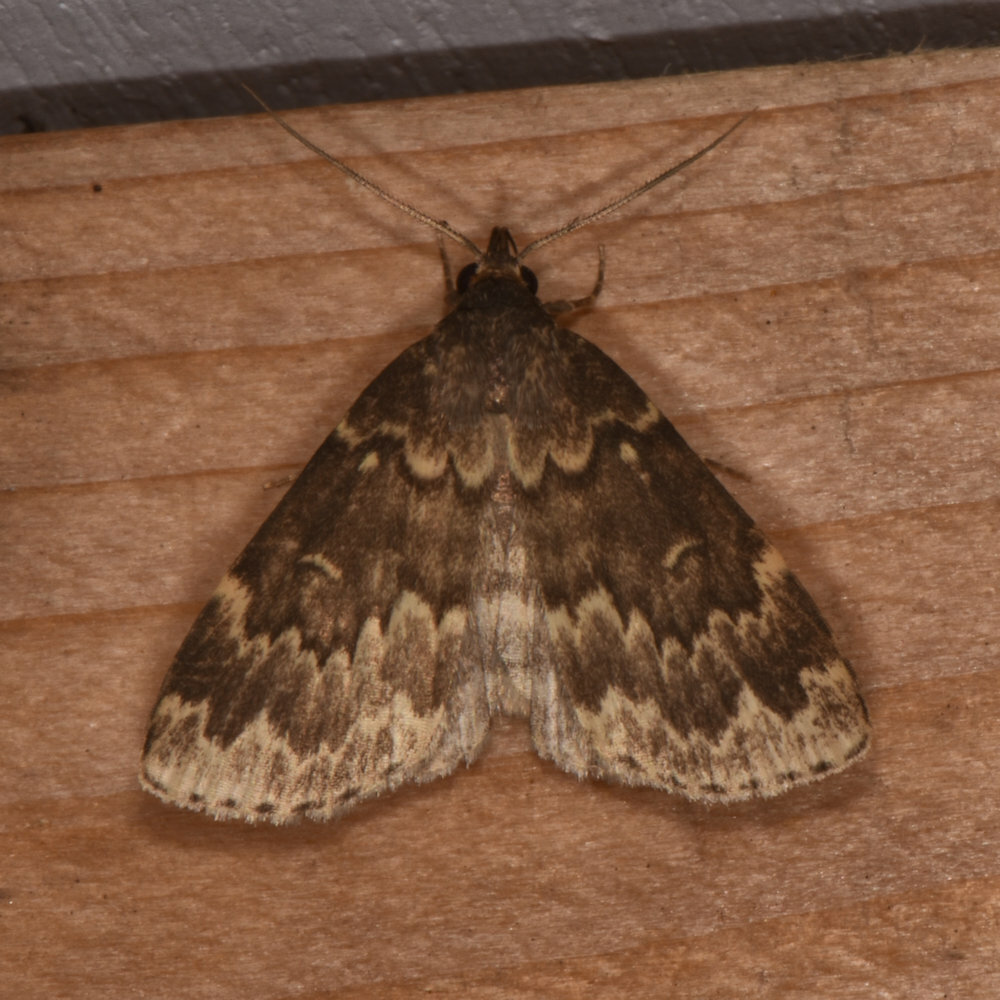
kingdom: Animalia
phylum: Arthropoda
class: Insecta
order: Lepidoptera
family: Erebidae
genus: Idia
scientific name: Idia lubricalis
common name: Twin-striped tabby
